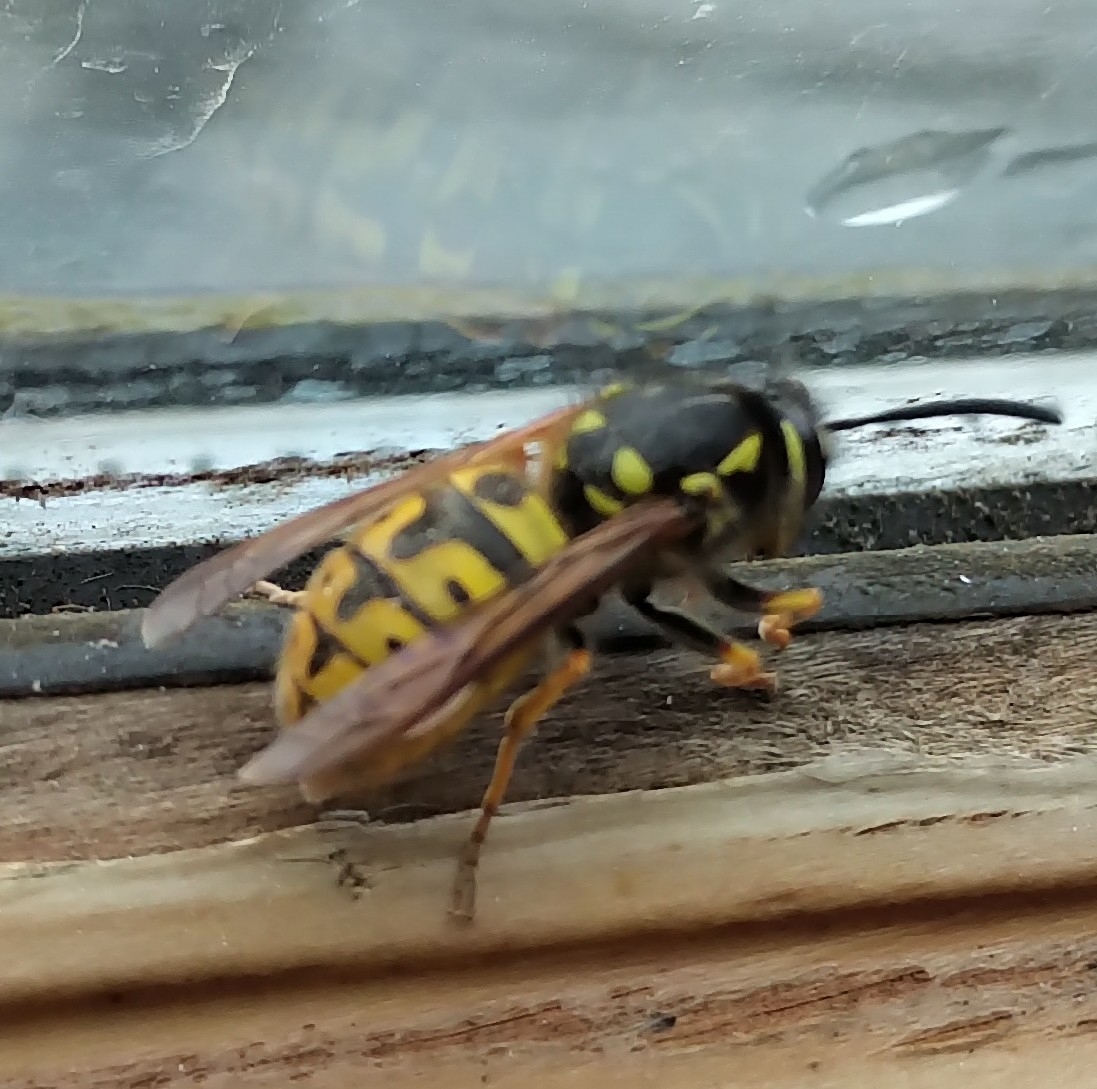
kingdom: Animalia
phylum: Arthropoda
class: Insecta
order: Hymenoptera
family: Vespidae
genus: Vespula
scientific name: Vespula germanica
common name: German wasp
